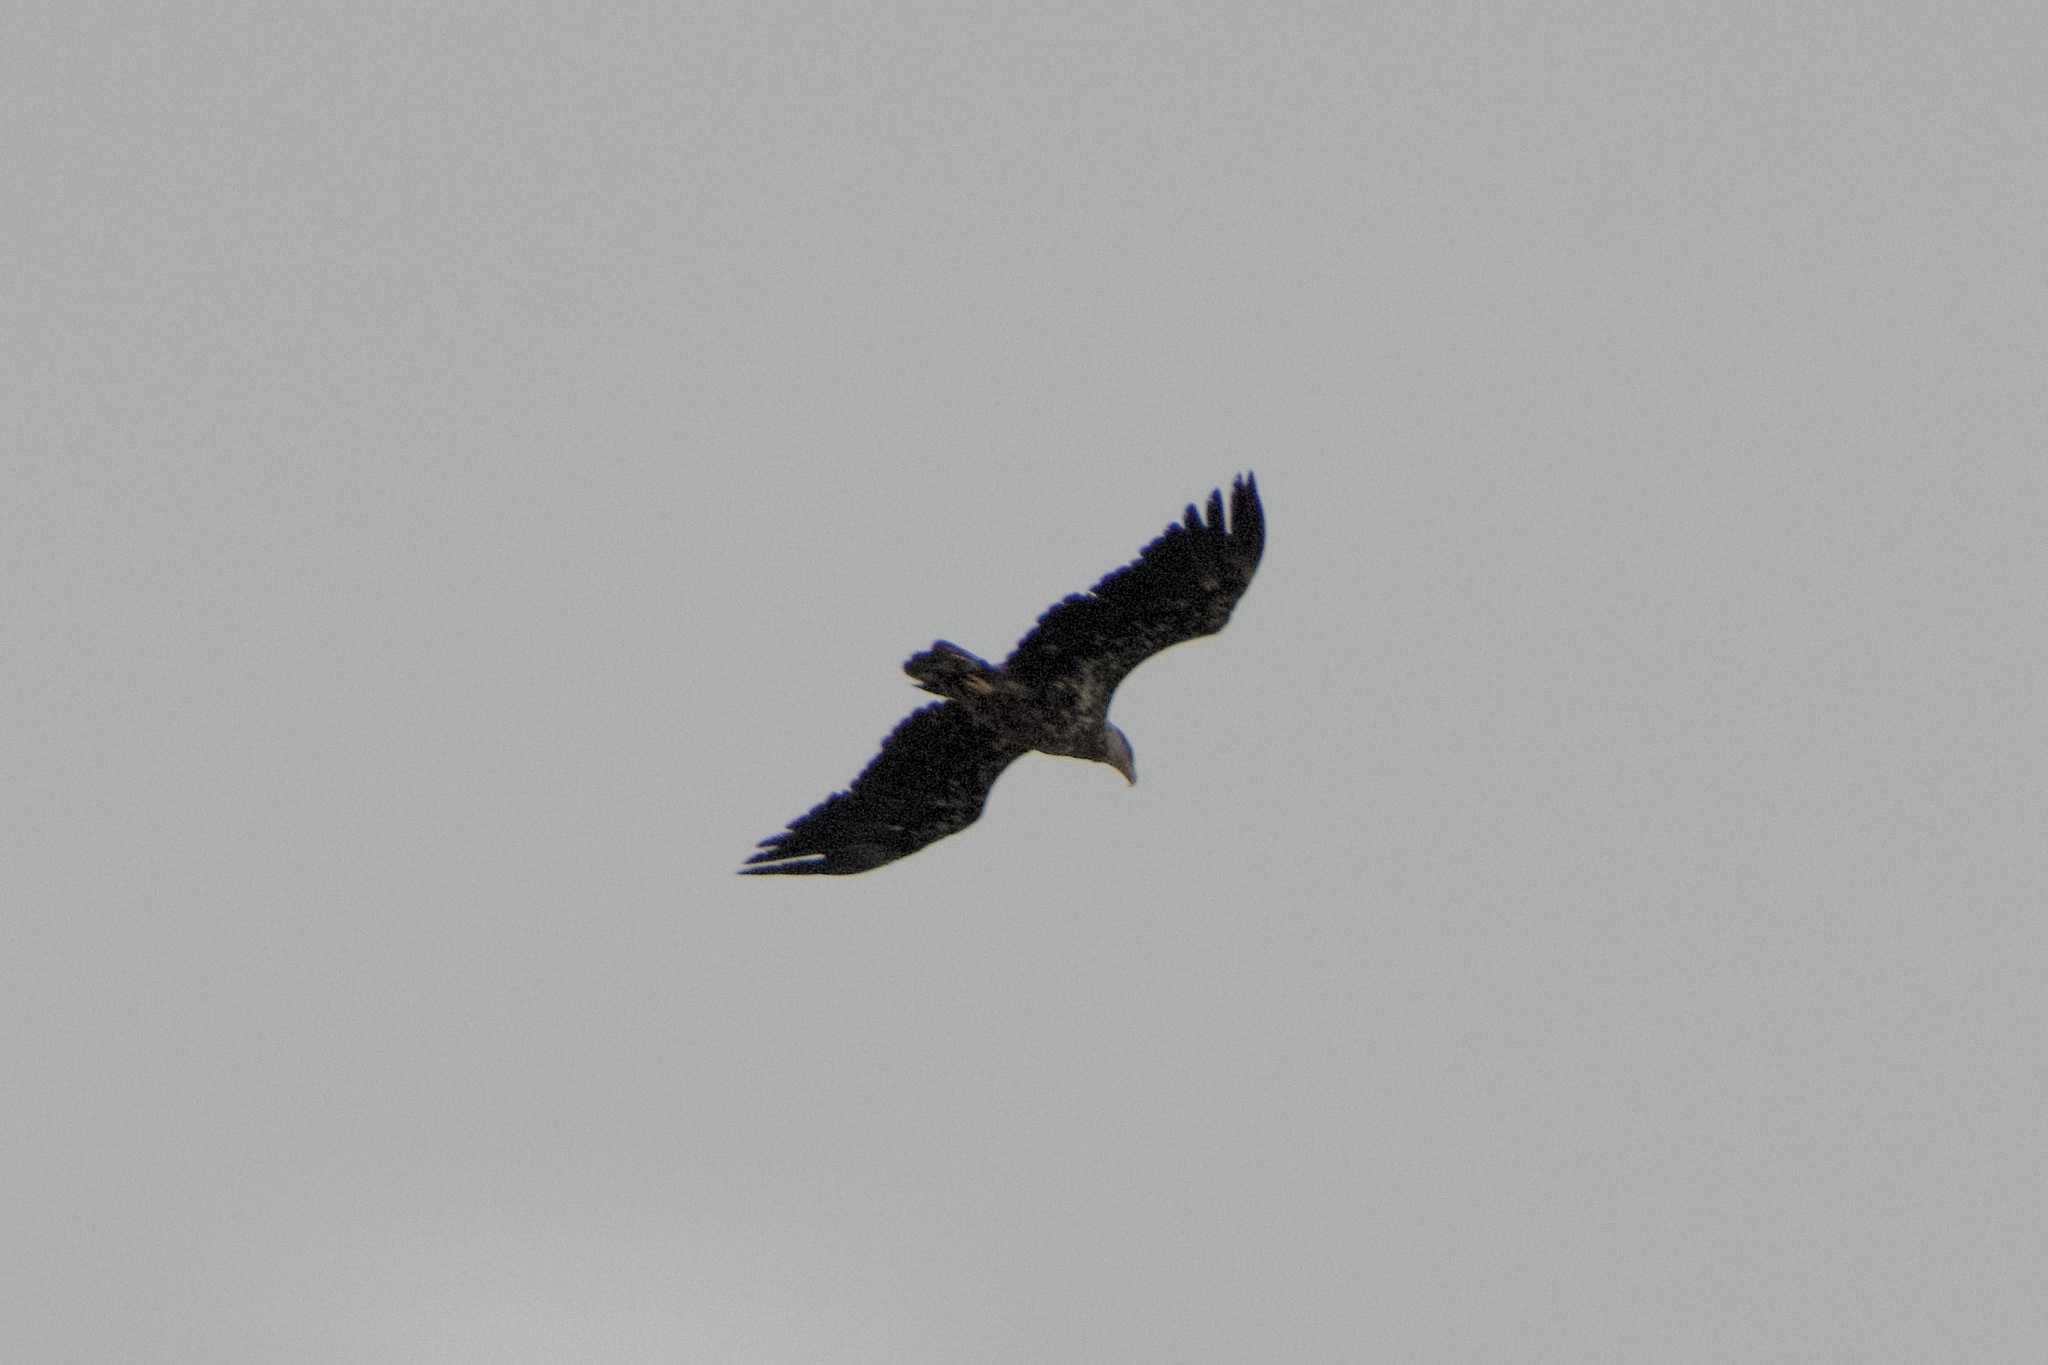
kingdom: Animalia
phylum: Chordata
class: Aves
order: Accipitriformes
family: Accipitridae
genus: Haliaeetus
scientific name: Haliaeetus leucocephalus
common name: Bald eagle
